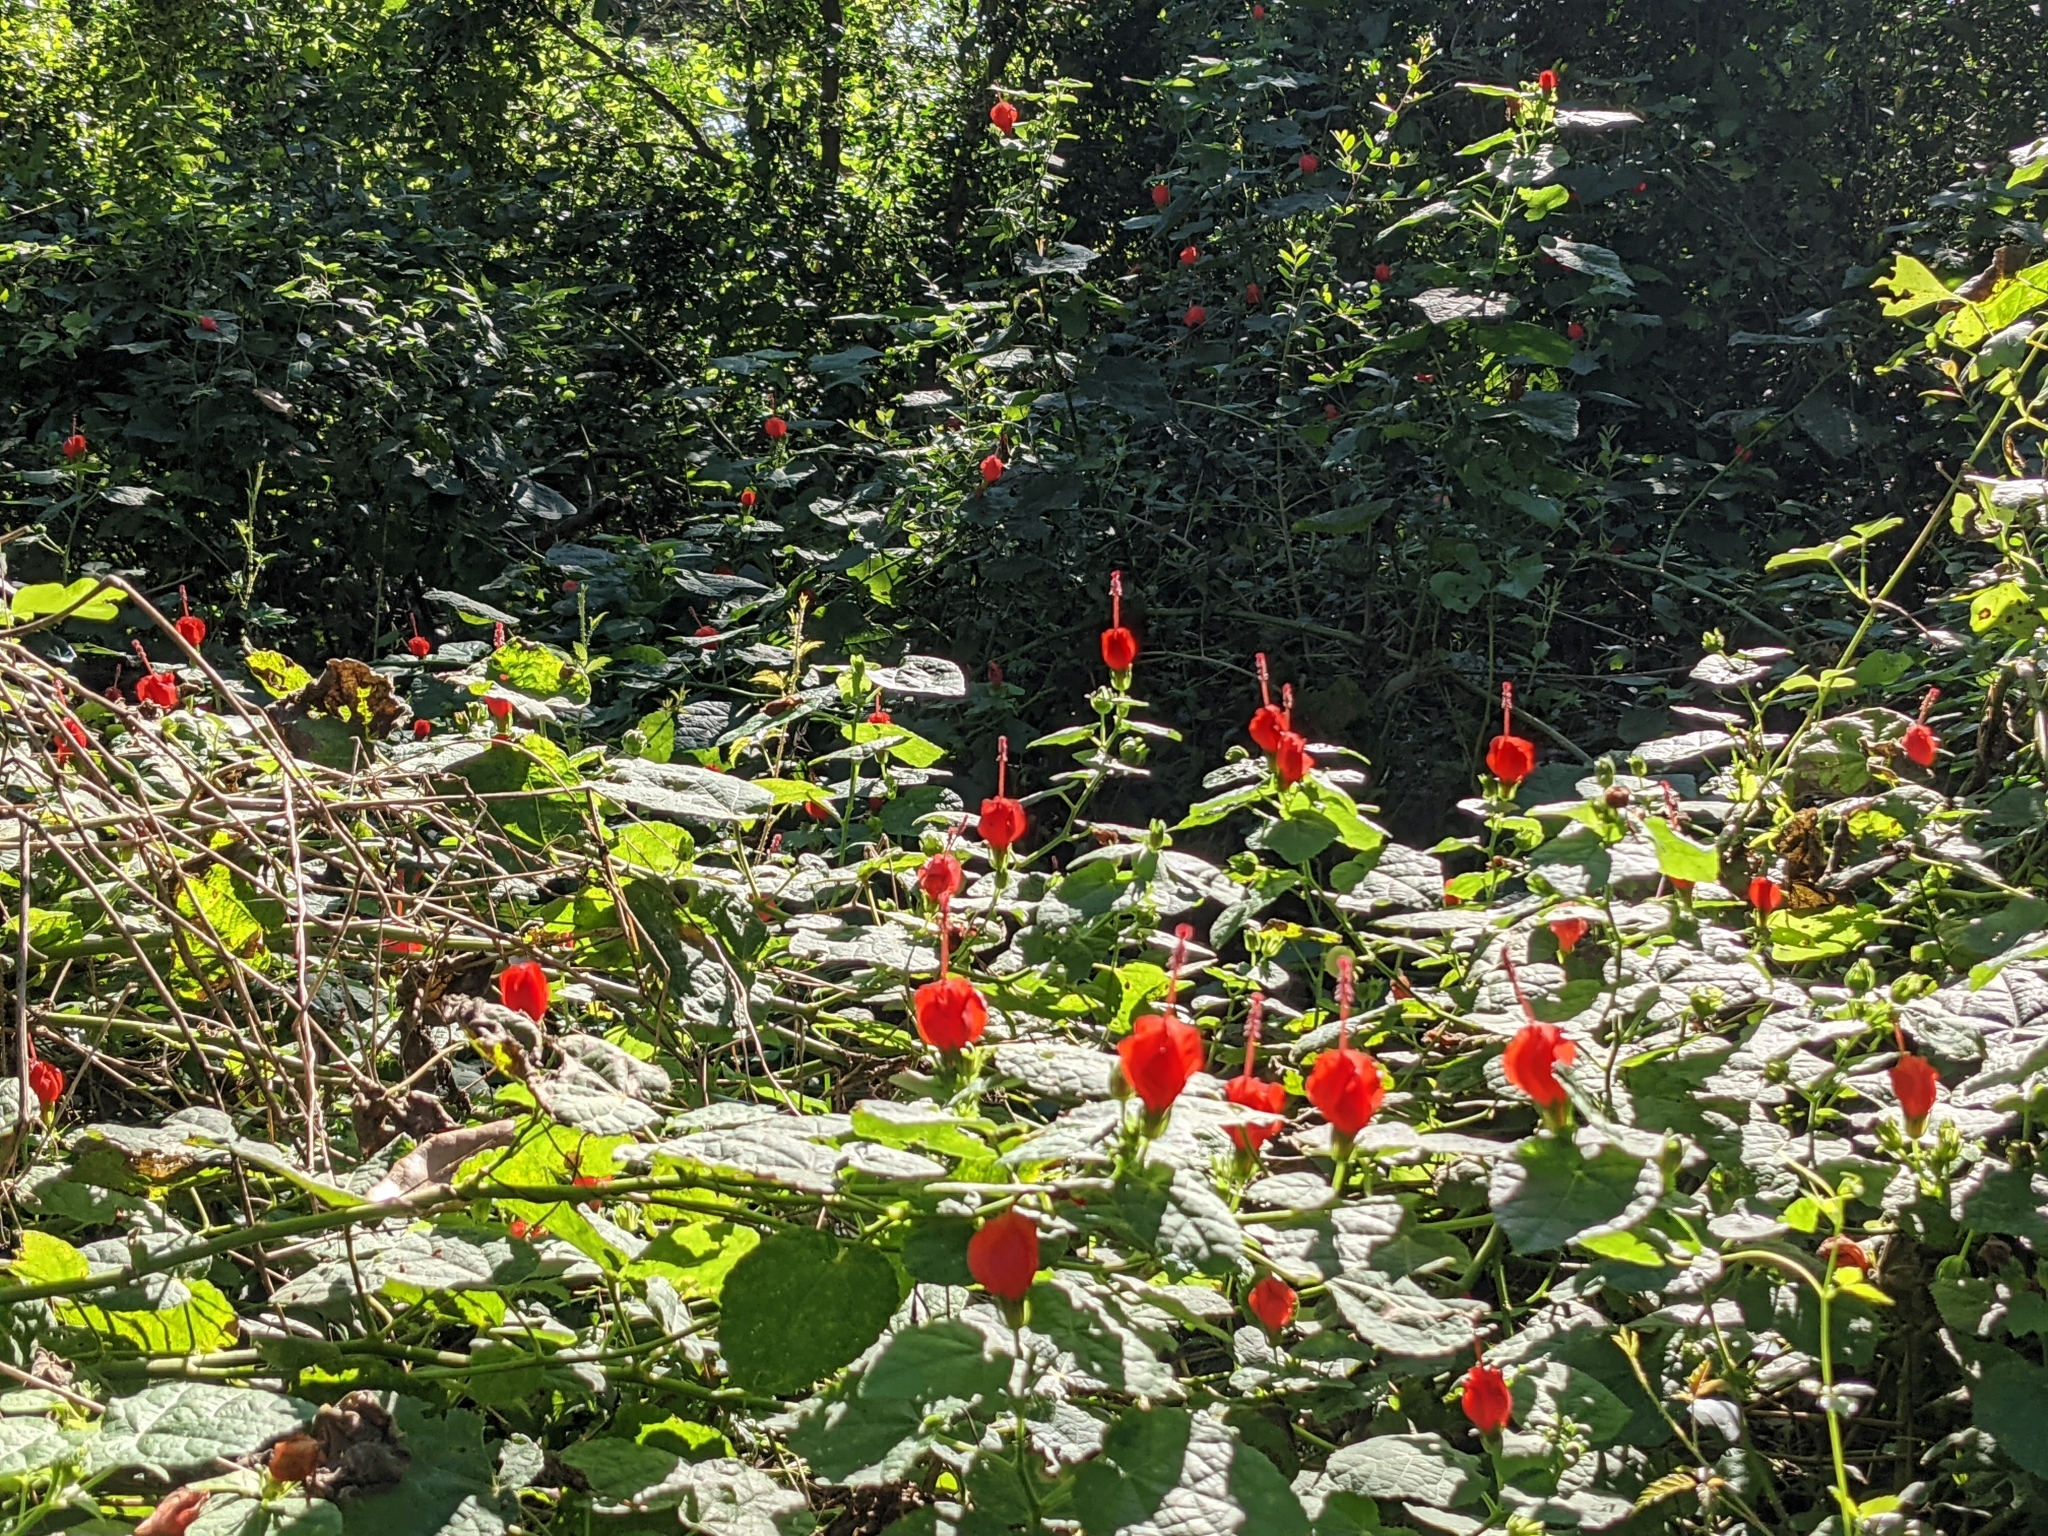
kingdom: Plantae
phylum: Tracheophyta
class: Magnoliopsida
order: Malvales
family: Malvaceae
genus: Malvaviscus
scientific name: Malvaviscus arboreus
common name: Wax mallow
